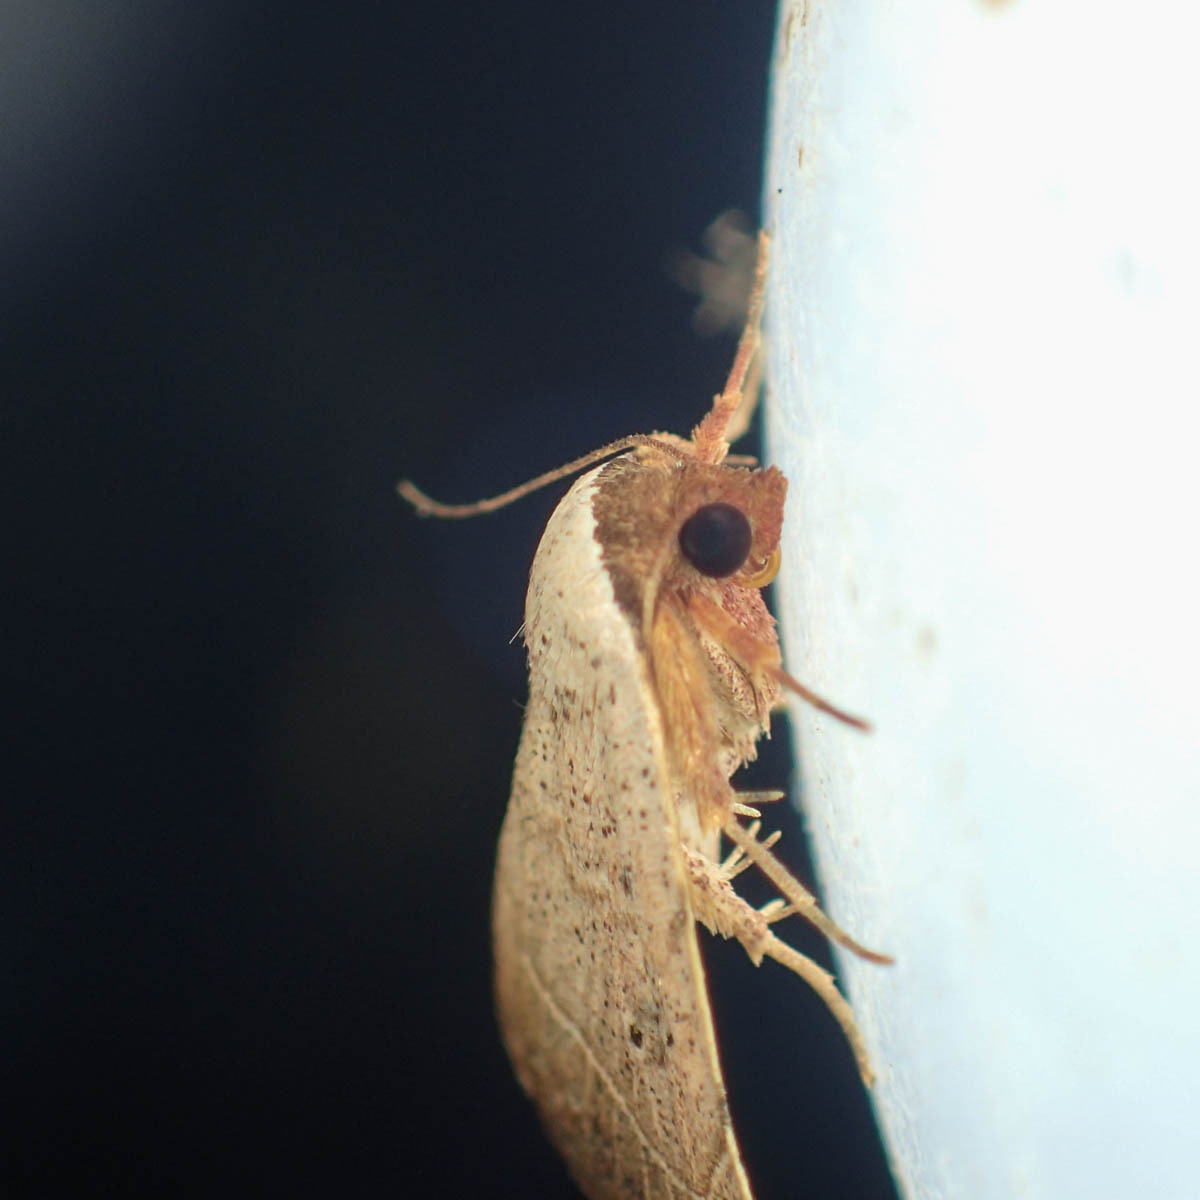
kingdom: Animalia
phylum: Arthropoda
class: Insecta
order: Lepidoptera
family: Erebidae
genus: Laspeyria
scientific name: Laspeyria ruficeps
